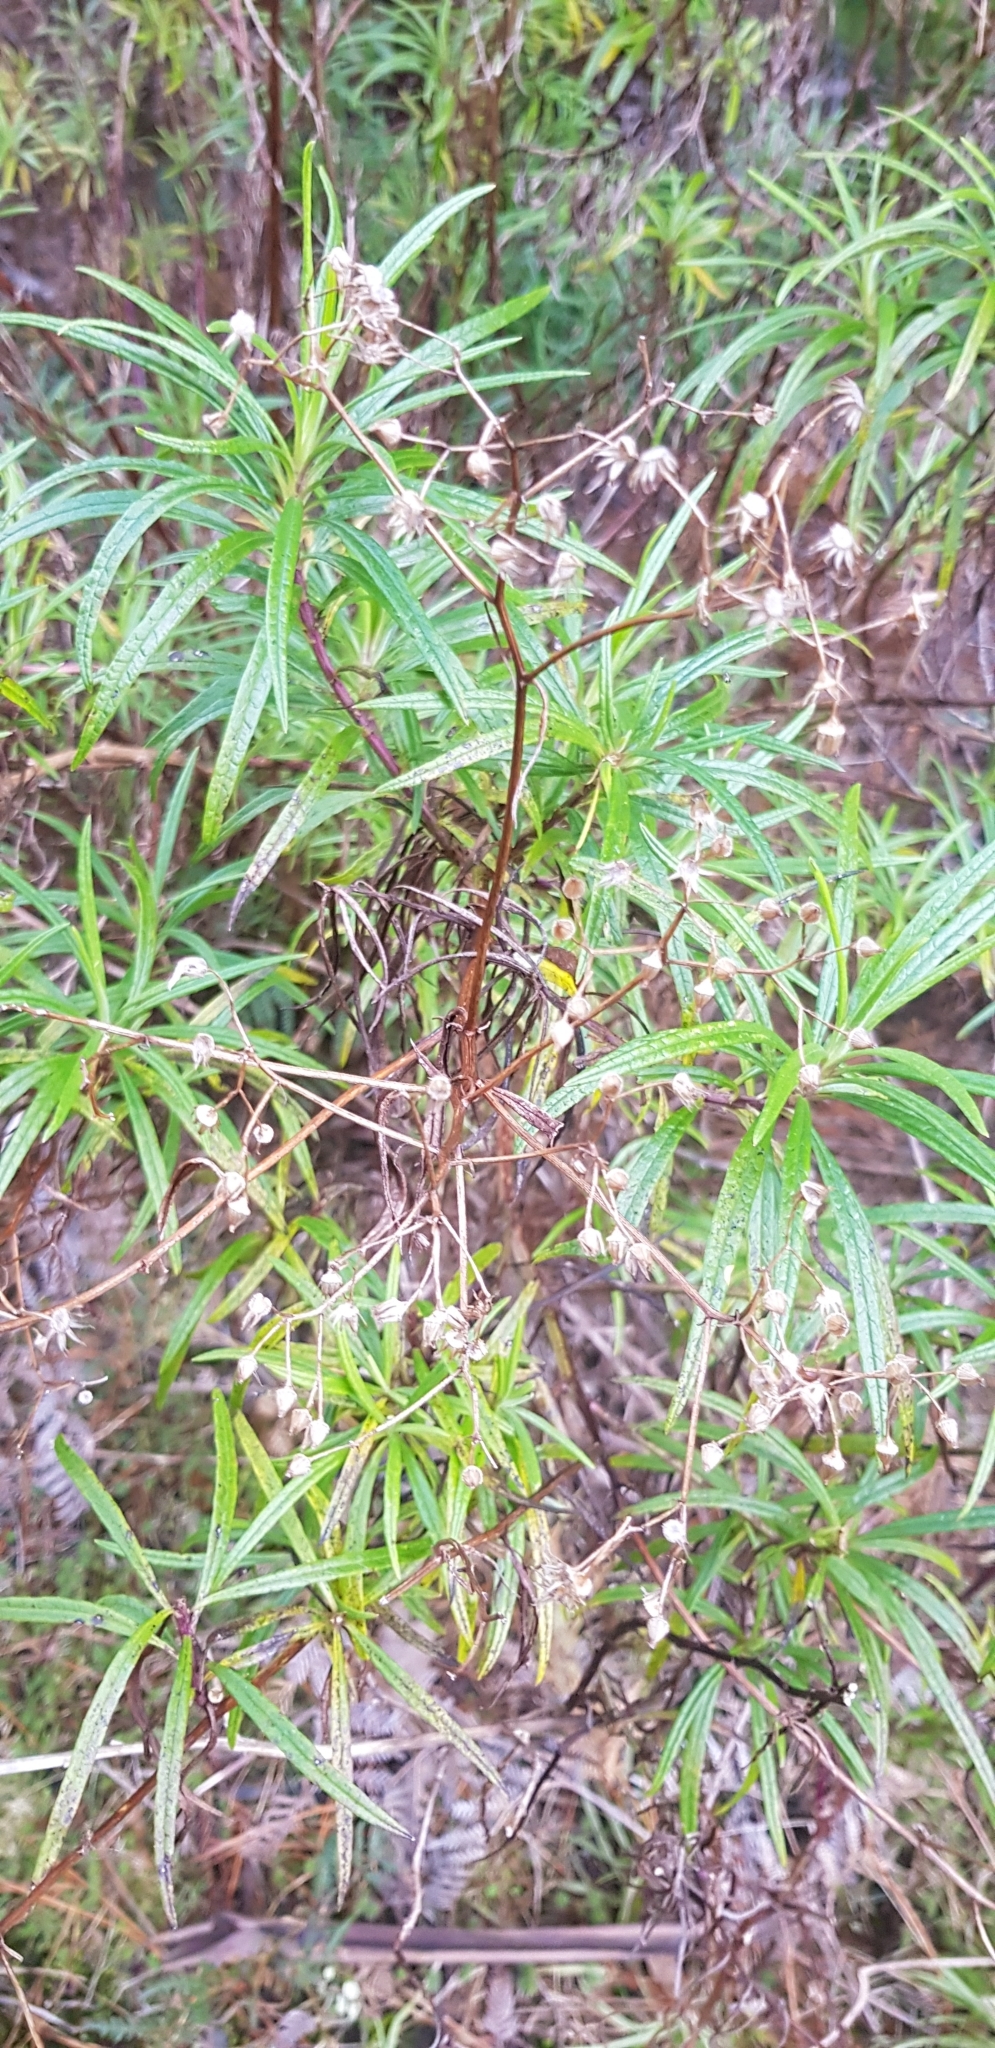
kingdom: Plantae
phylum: Tracheophyta
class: Magnoliopsida
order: Asterales
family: Asteraceae
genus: Senecio
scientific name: Senecio linearifolius
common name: Fireweed groundsel
